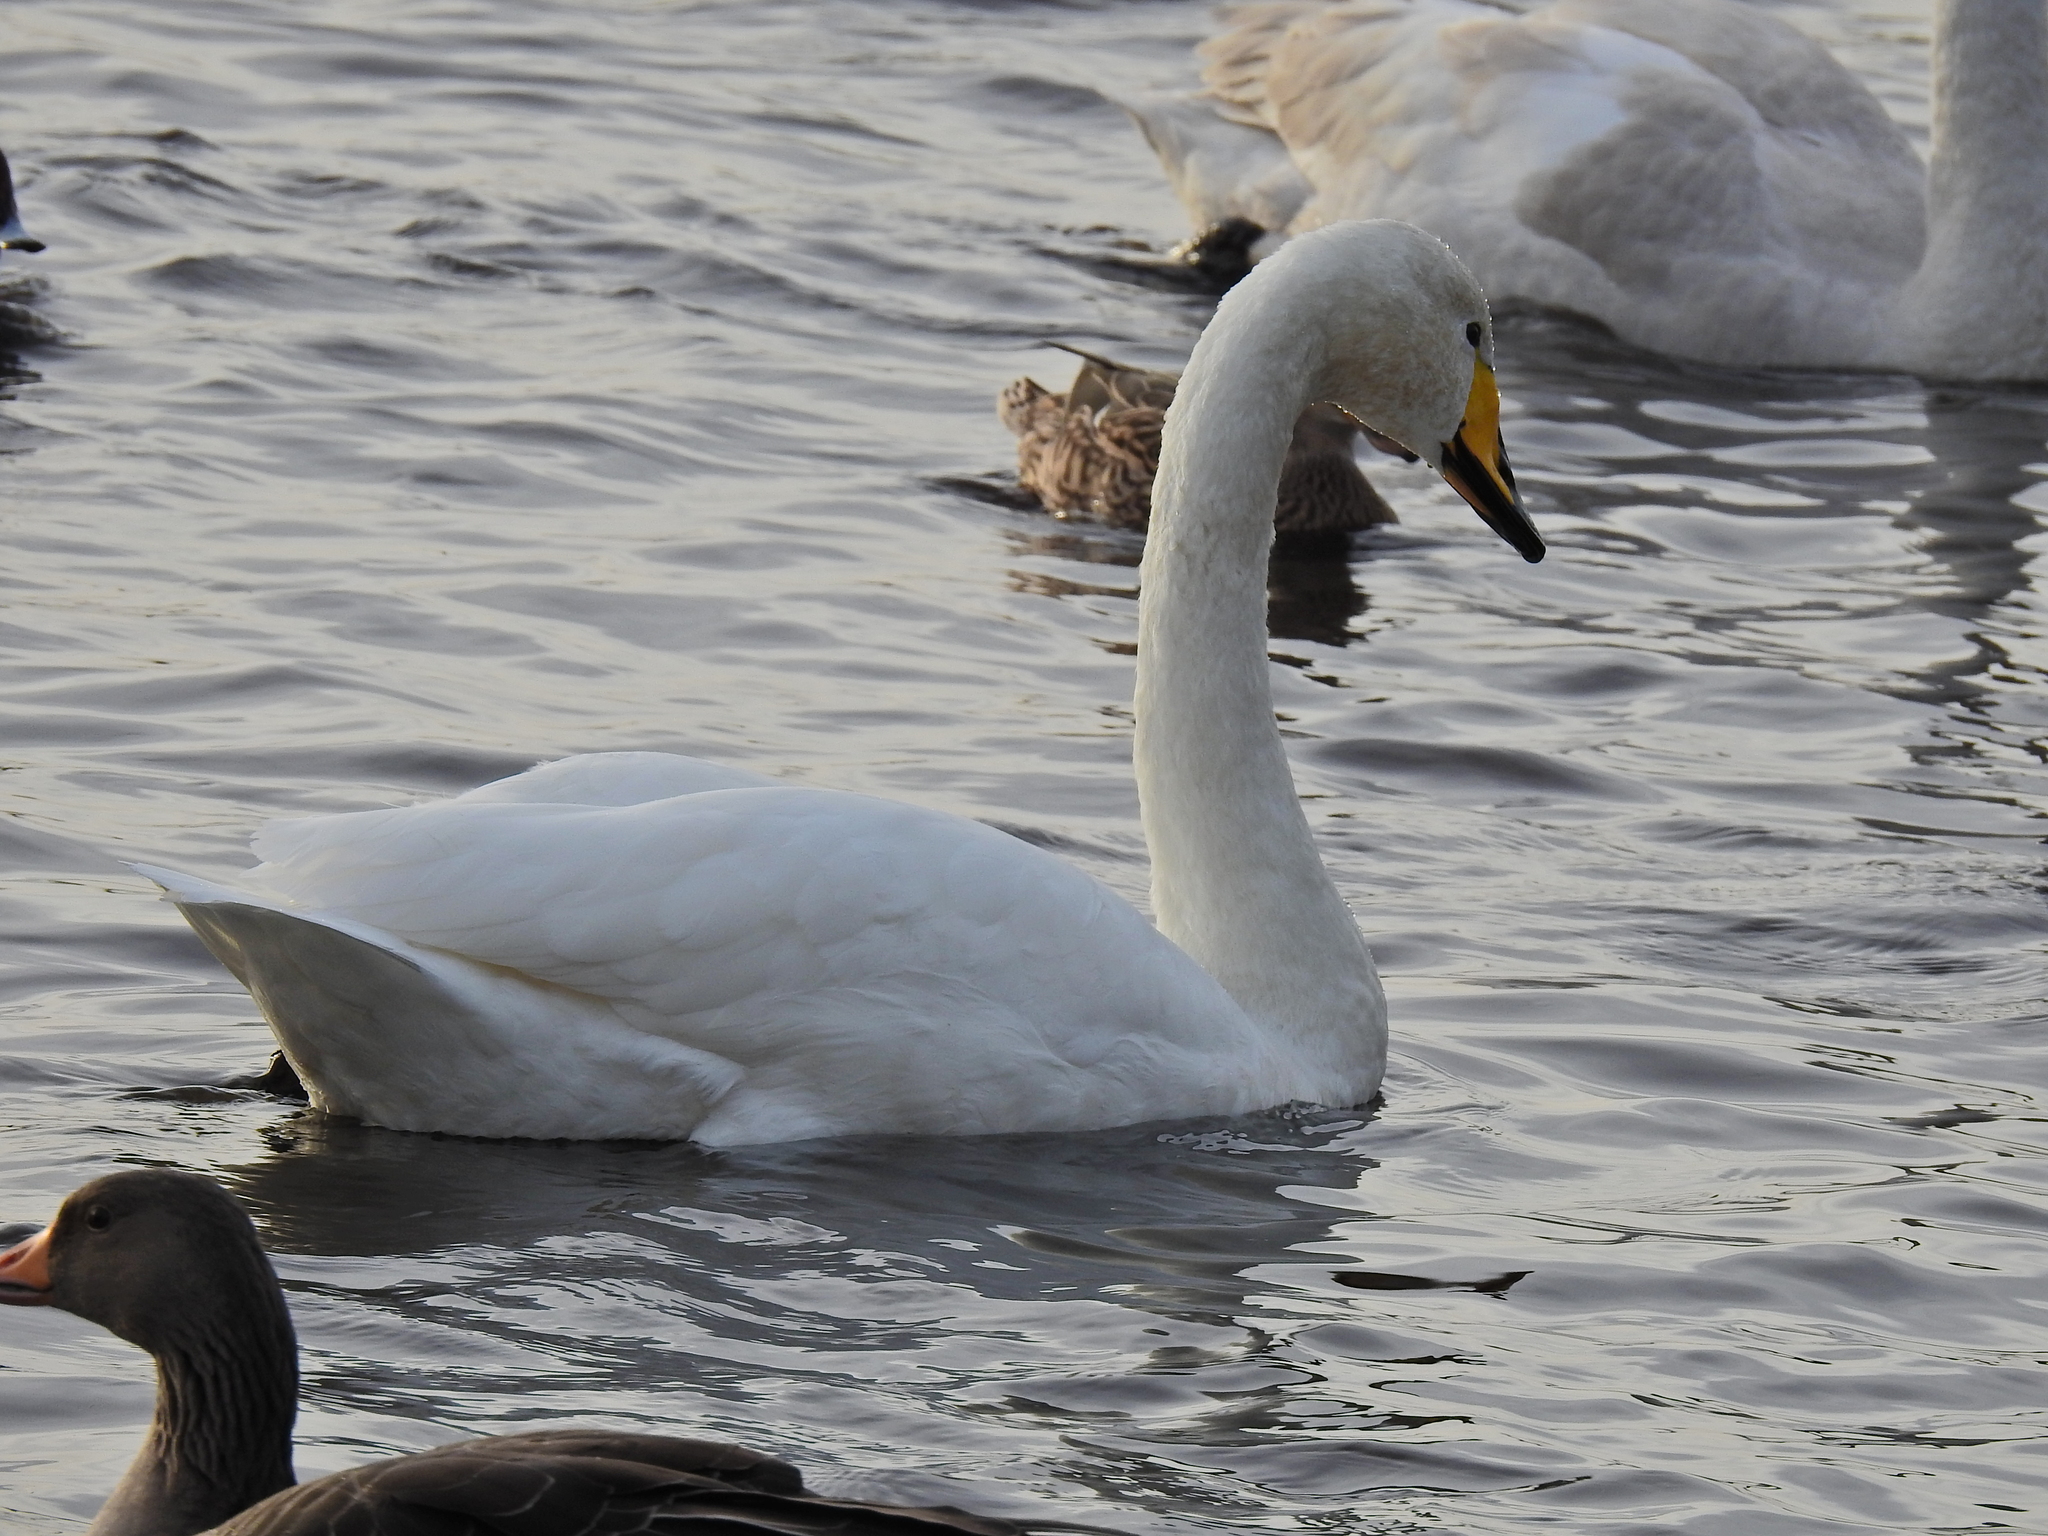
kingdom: Animalia
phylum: Chordata
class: Aves
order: Anseriformes
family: Anatidae
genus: Cygnus
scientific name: Cygnus cygnus
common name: Whooper swan
